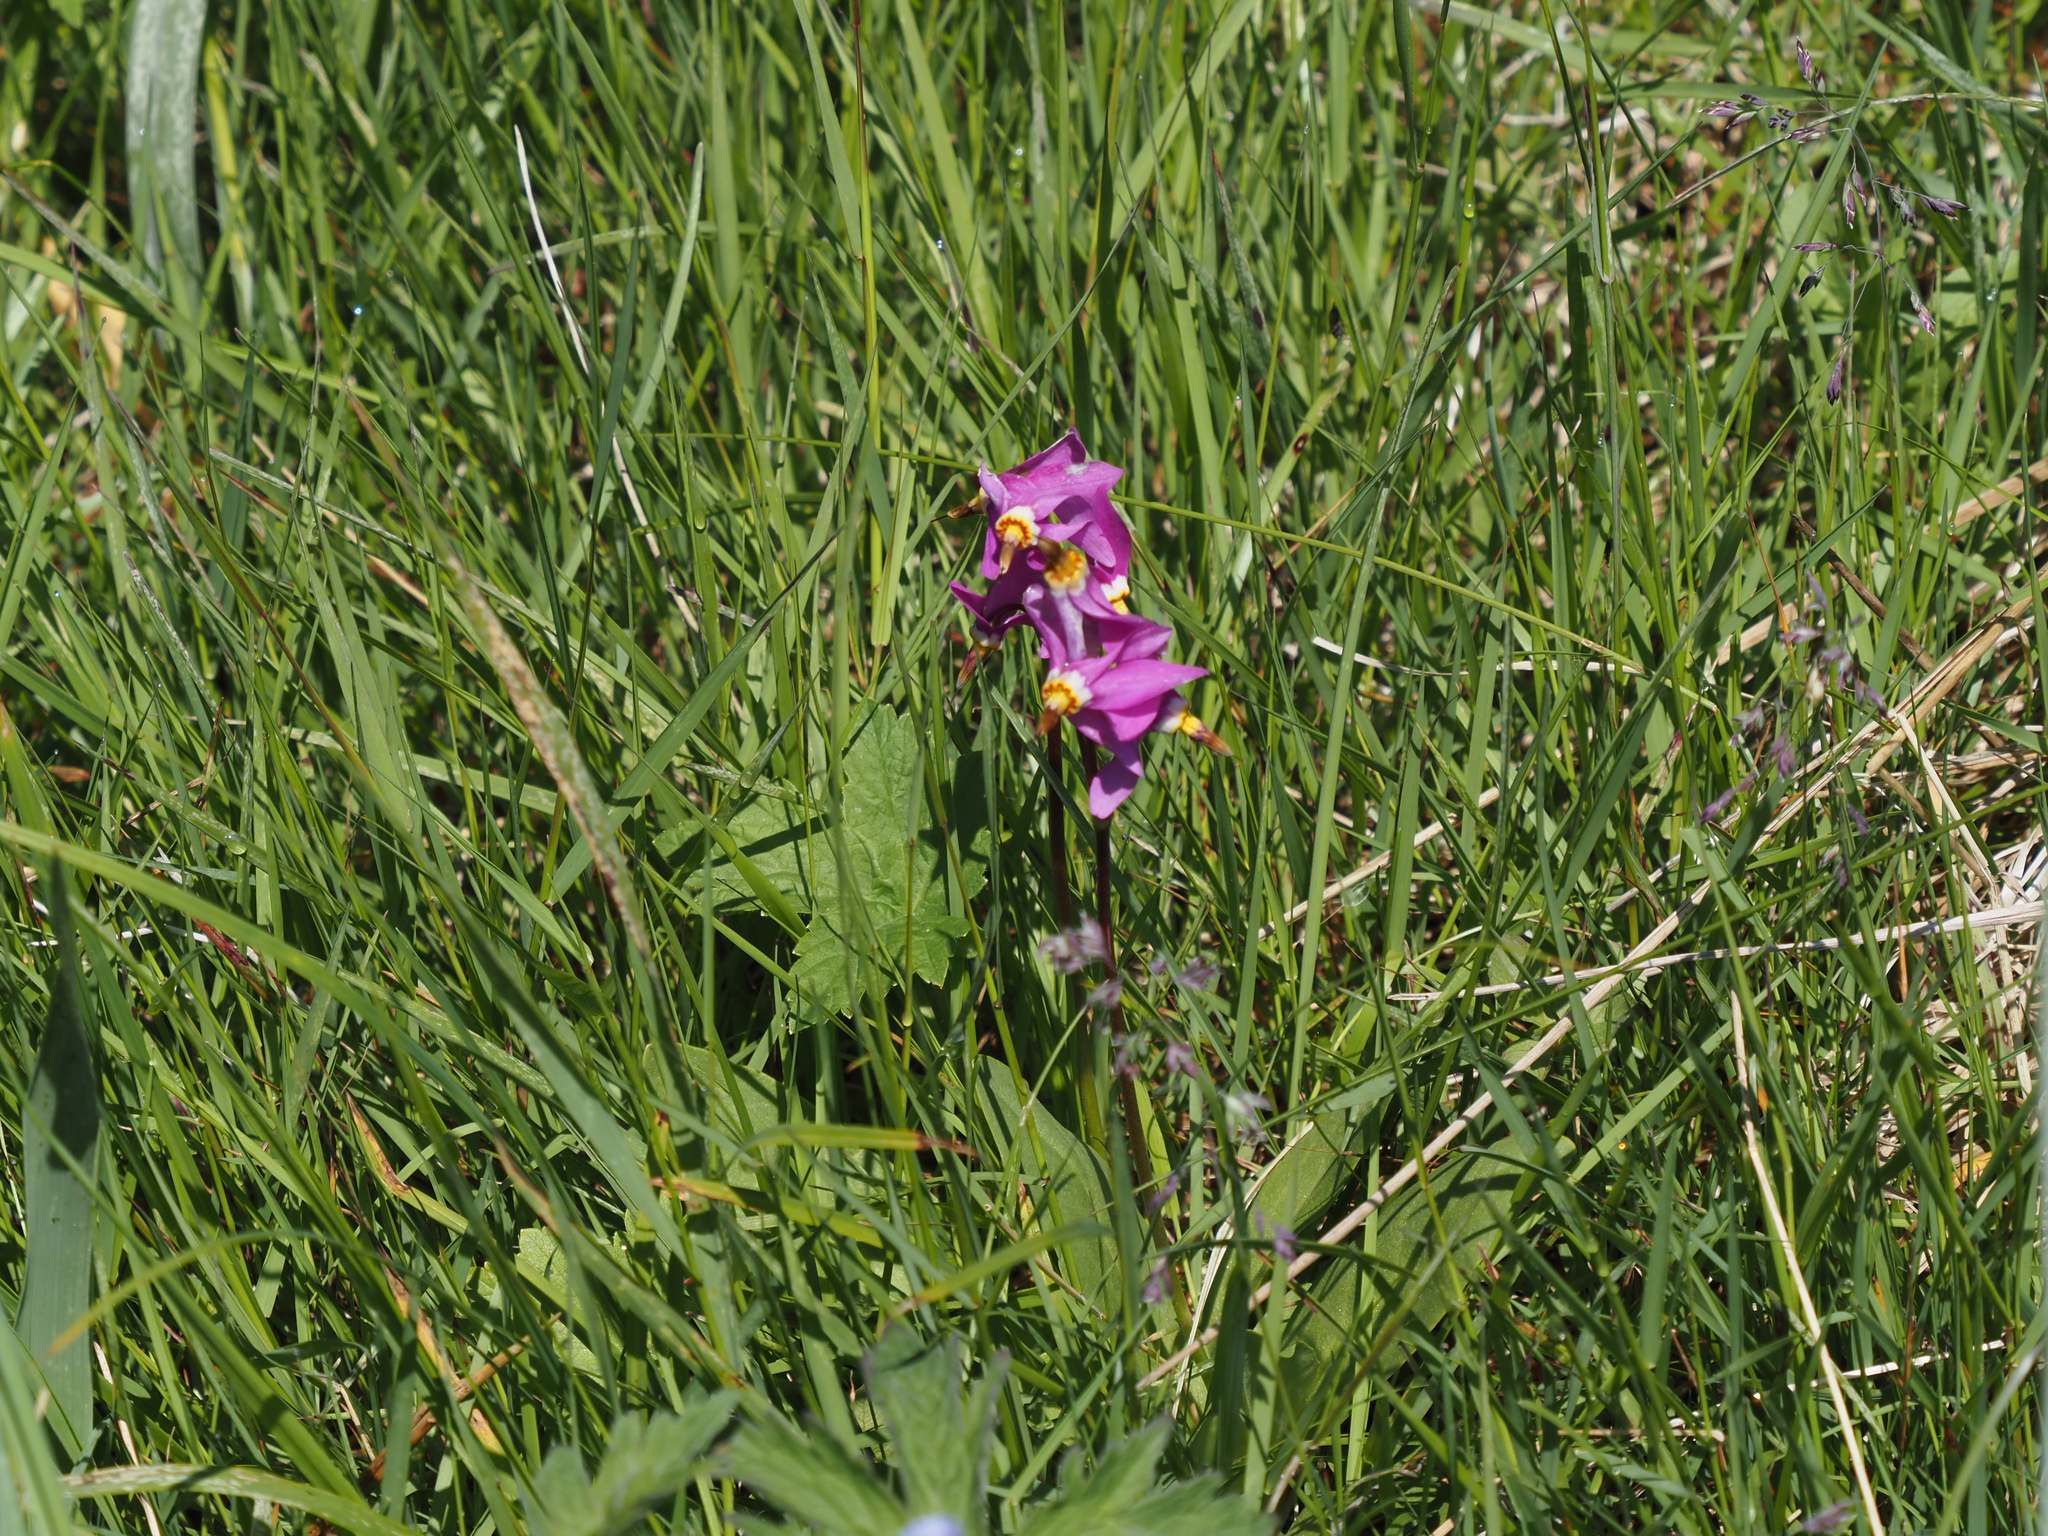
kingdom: Plantae
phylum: Tracheophyta
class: Magnoliopsida
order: Ericales
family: Primulaceae
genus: Dodecatheon
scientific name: Dodecatheon pulchellum
